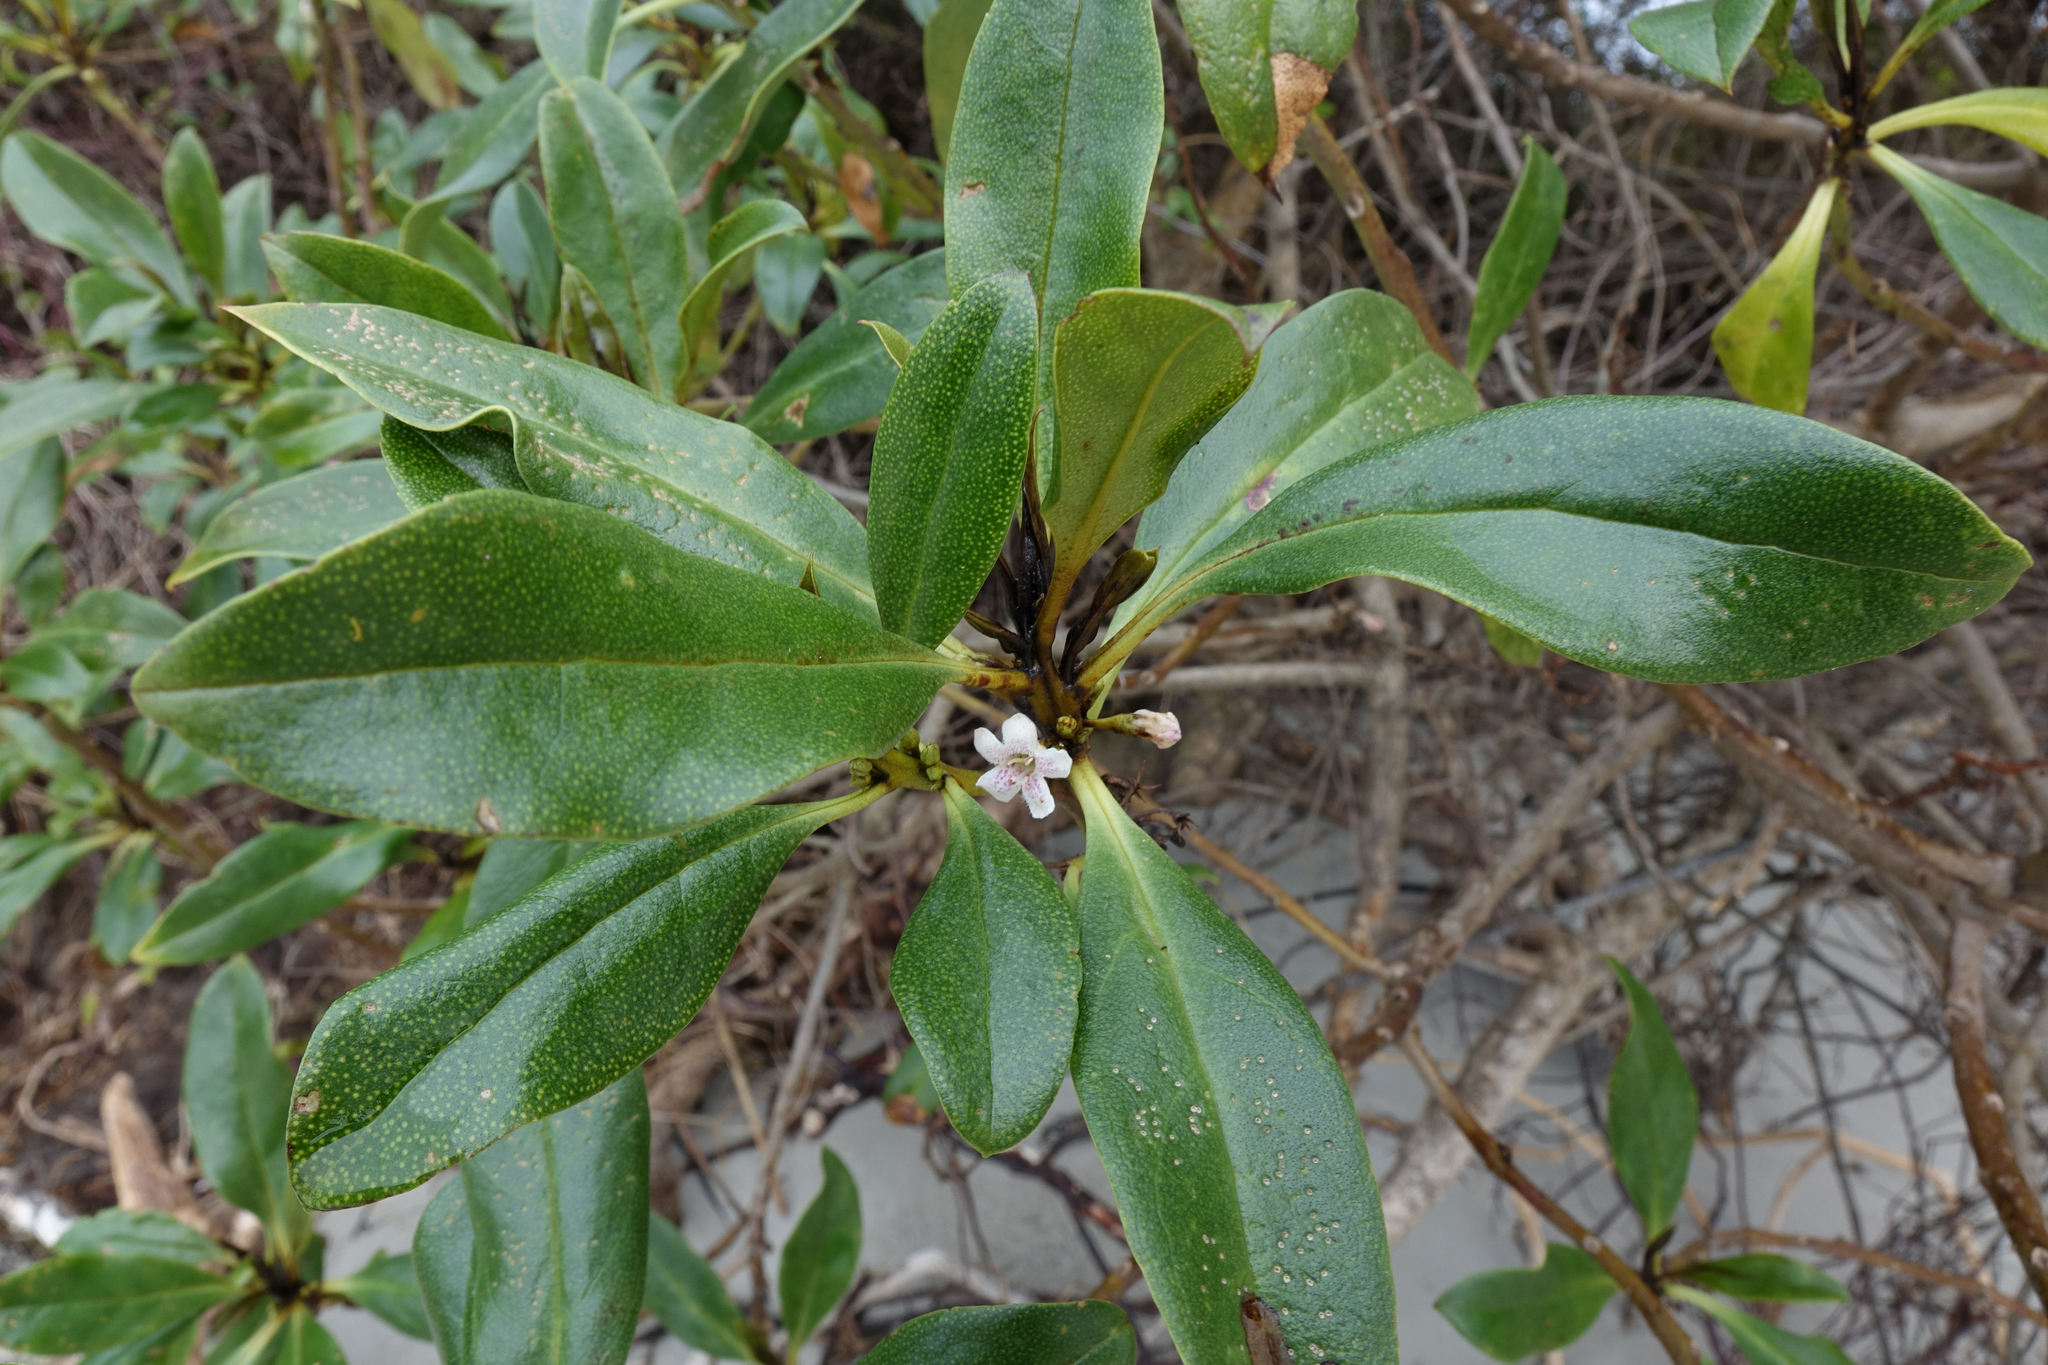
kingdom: Plantae
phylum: Tracheophyta
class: Magnoliopsida
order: Lamiales
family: Scrophulariaceae
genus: Myoporum
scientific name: Myoporum laetum
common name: Ngaio tree
